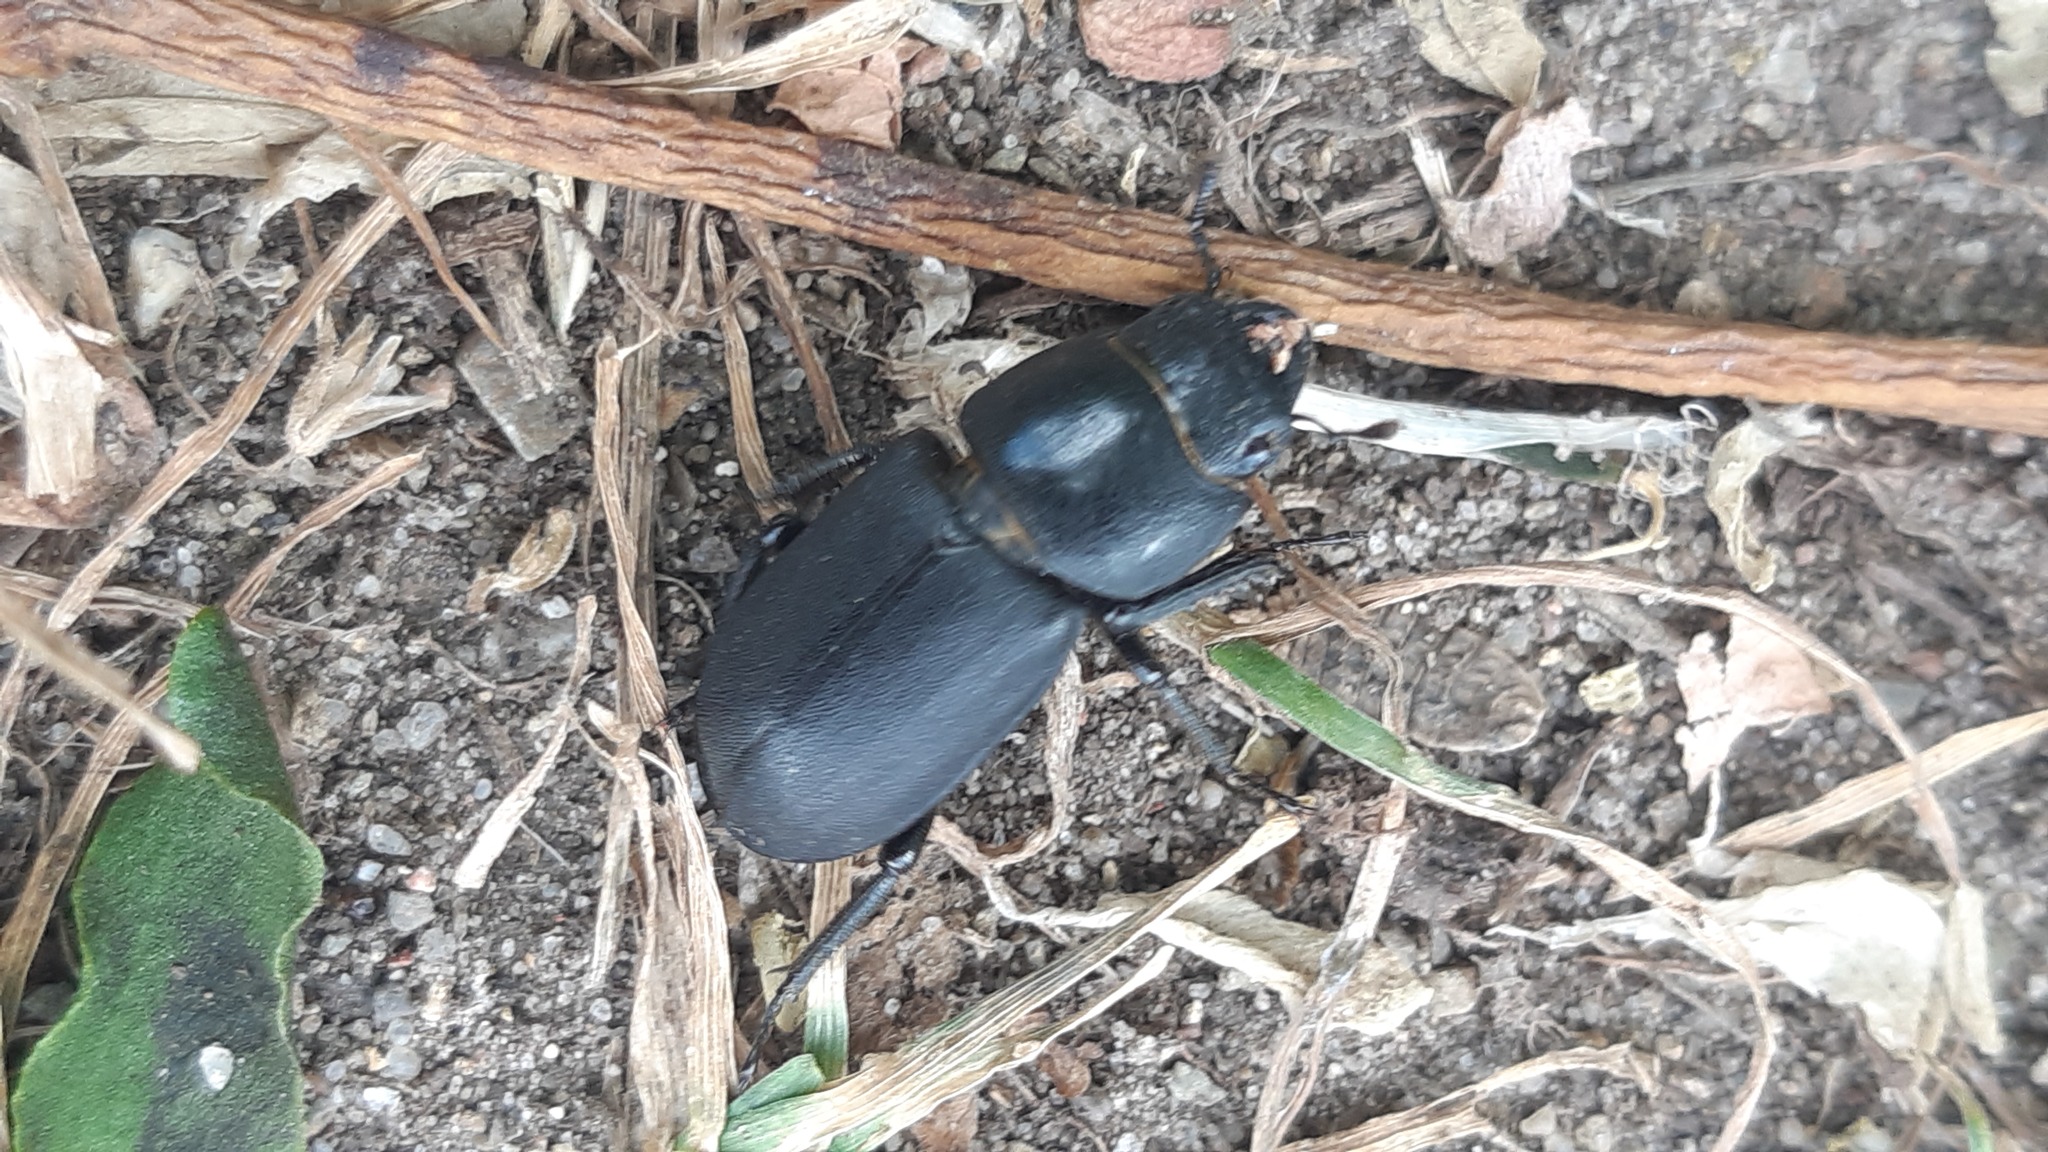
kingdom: Animalia
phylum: Arthropoda
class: Insecta
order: Coleoptera
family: Lucanidae
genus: Dorcus
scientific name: Dorcus parallelipipedus
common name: Lesser stag beetle
